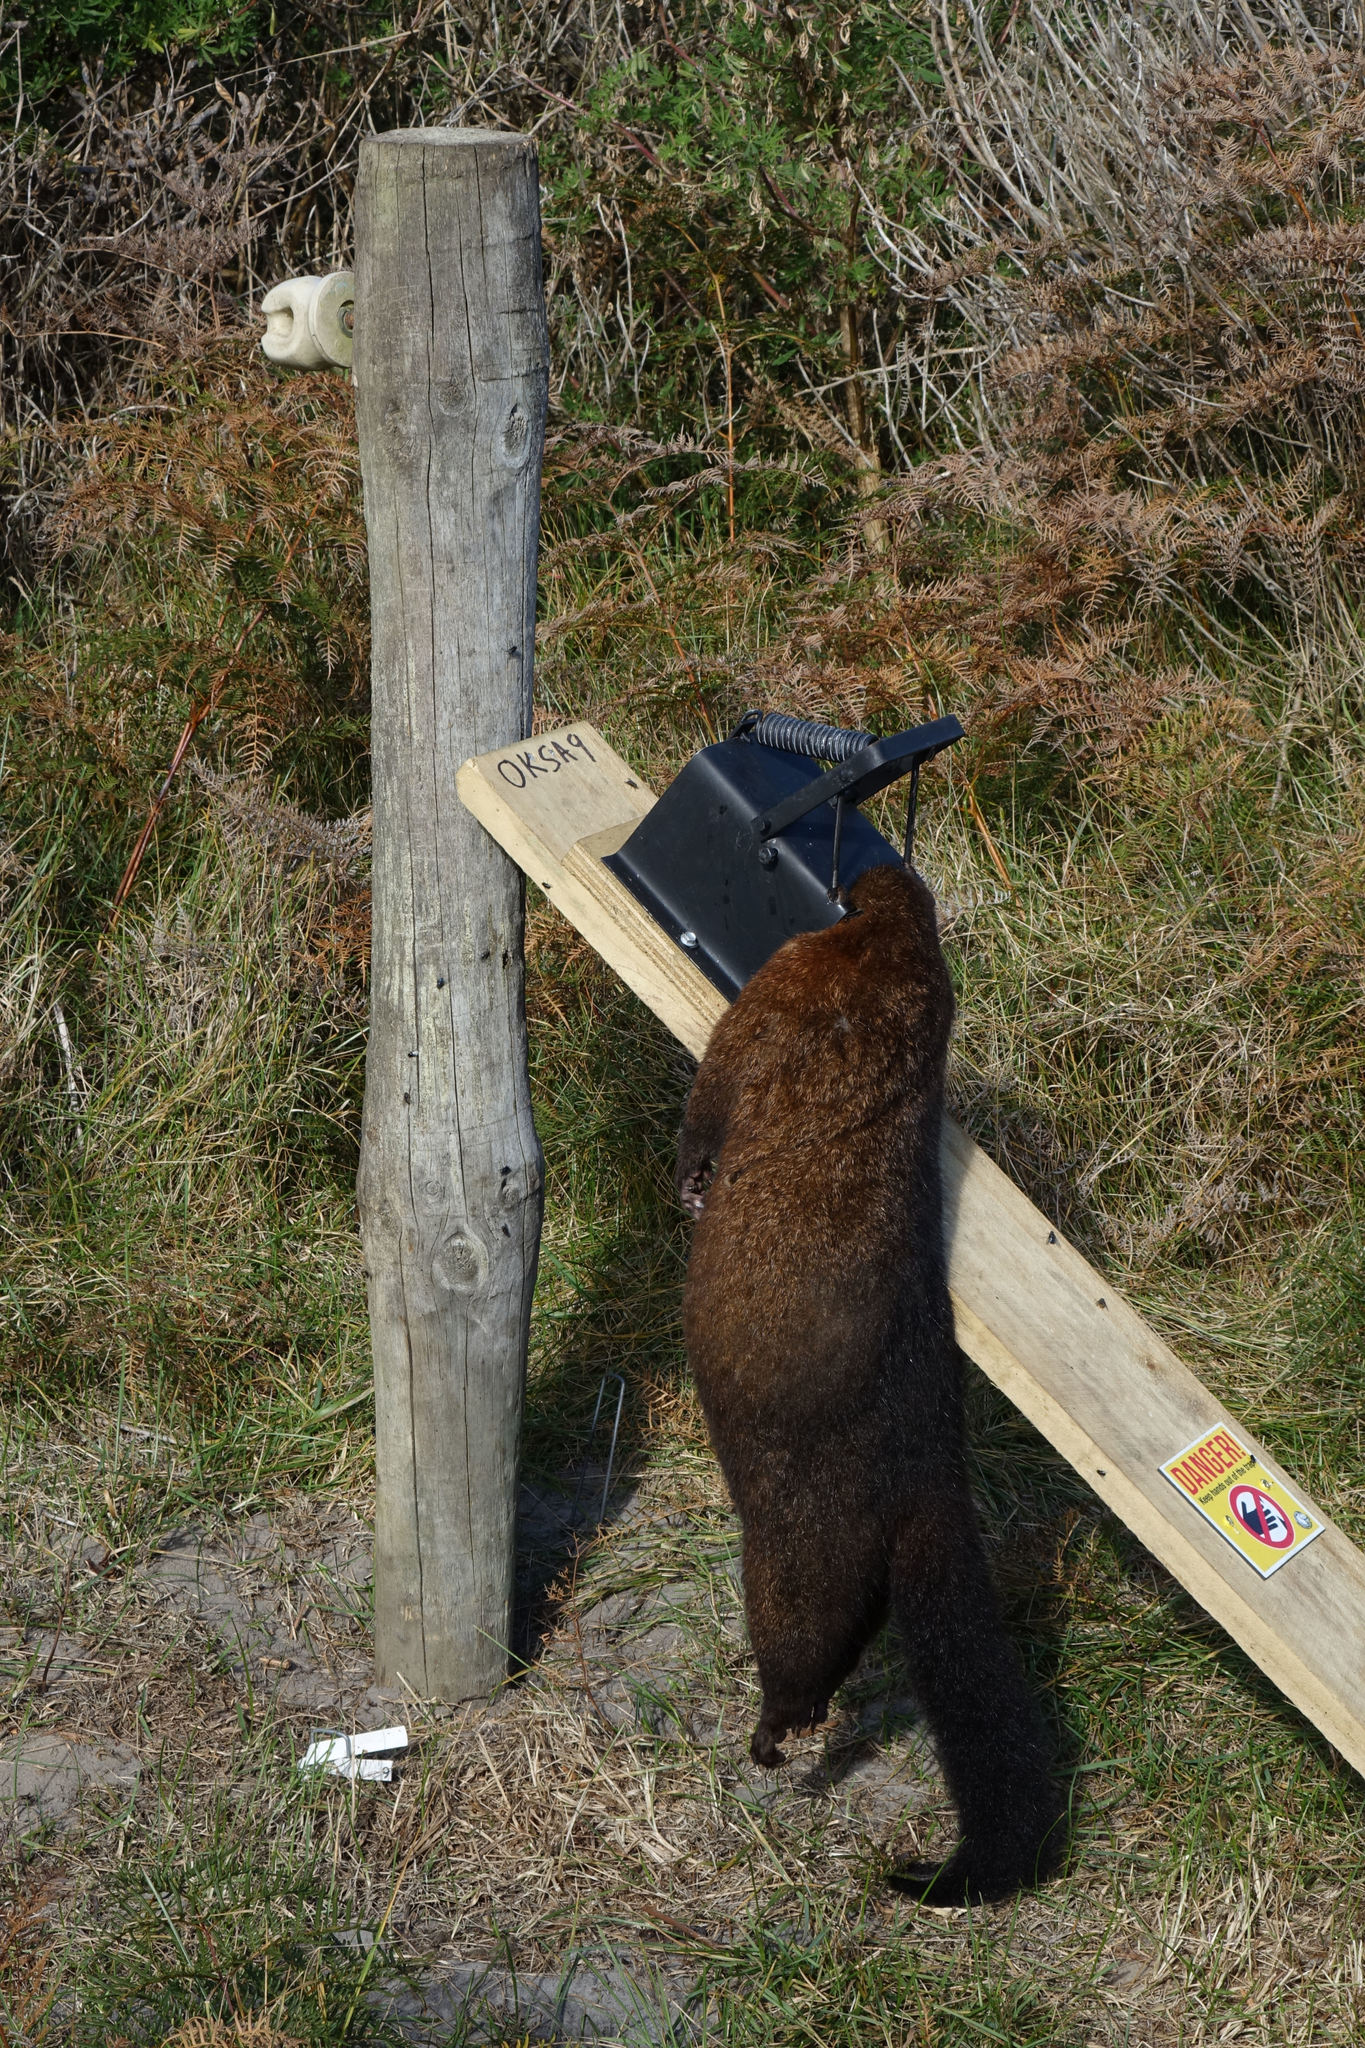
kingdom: Animalia
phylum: Chordata
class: Mammalia
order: Diprotodontia
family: Phalangeridae
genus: Trichosurus
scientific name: Trichosurus vulpecula
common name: Common brushtail
